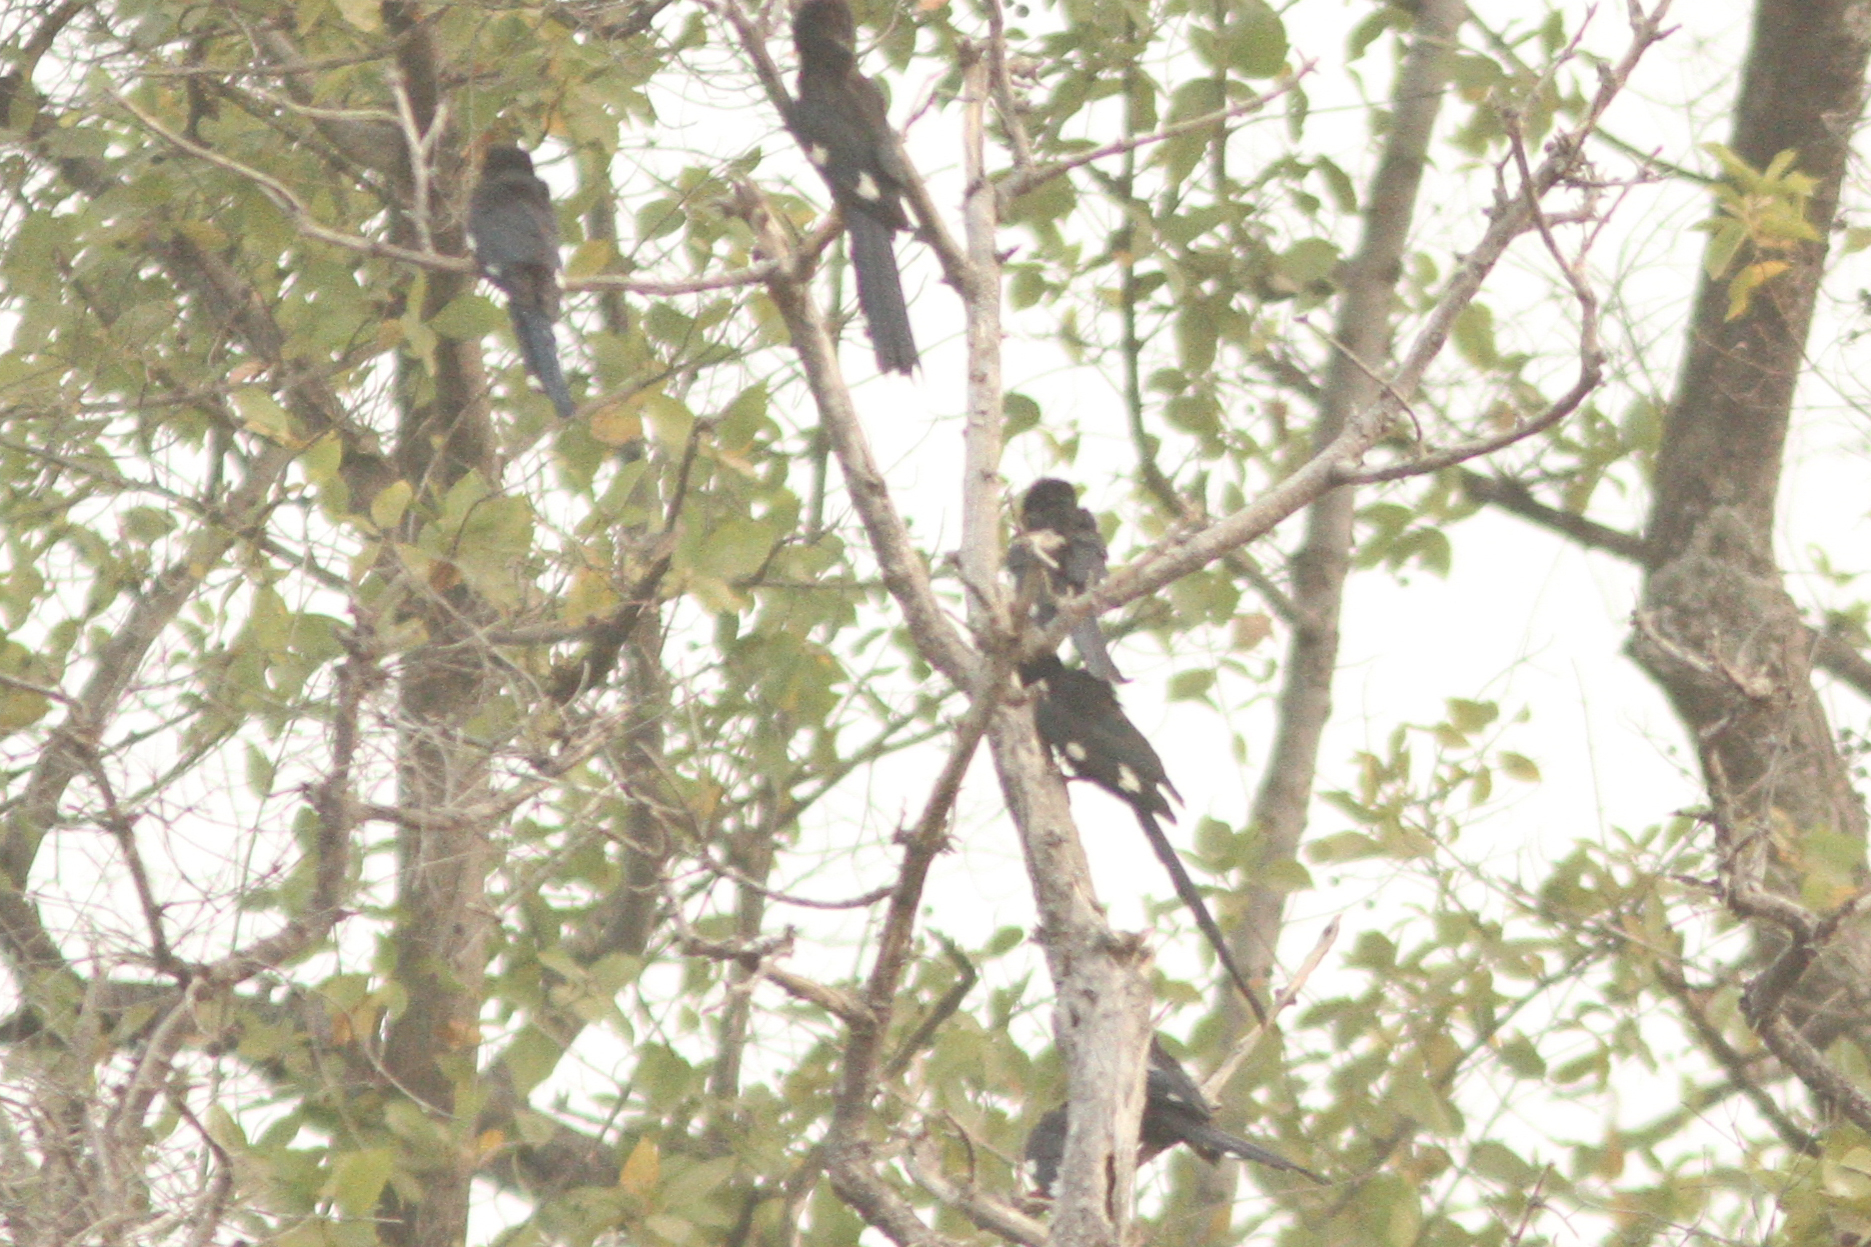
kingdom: Animalia
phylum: Chordata
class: Aves
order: Bucerotiformes
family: Phoeniculidae
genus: Phoeniculus
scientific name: Phoeniculus purpureus
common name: Green woodhoopoe
